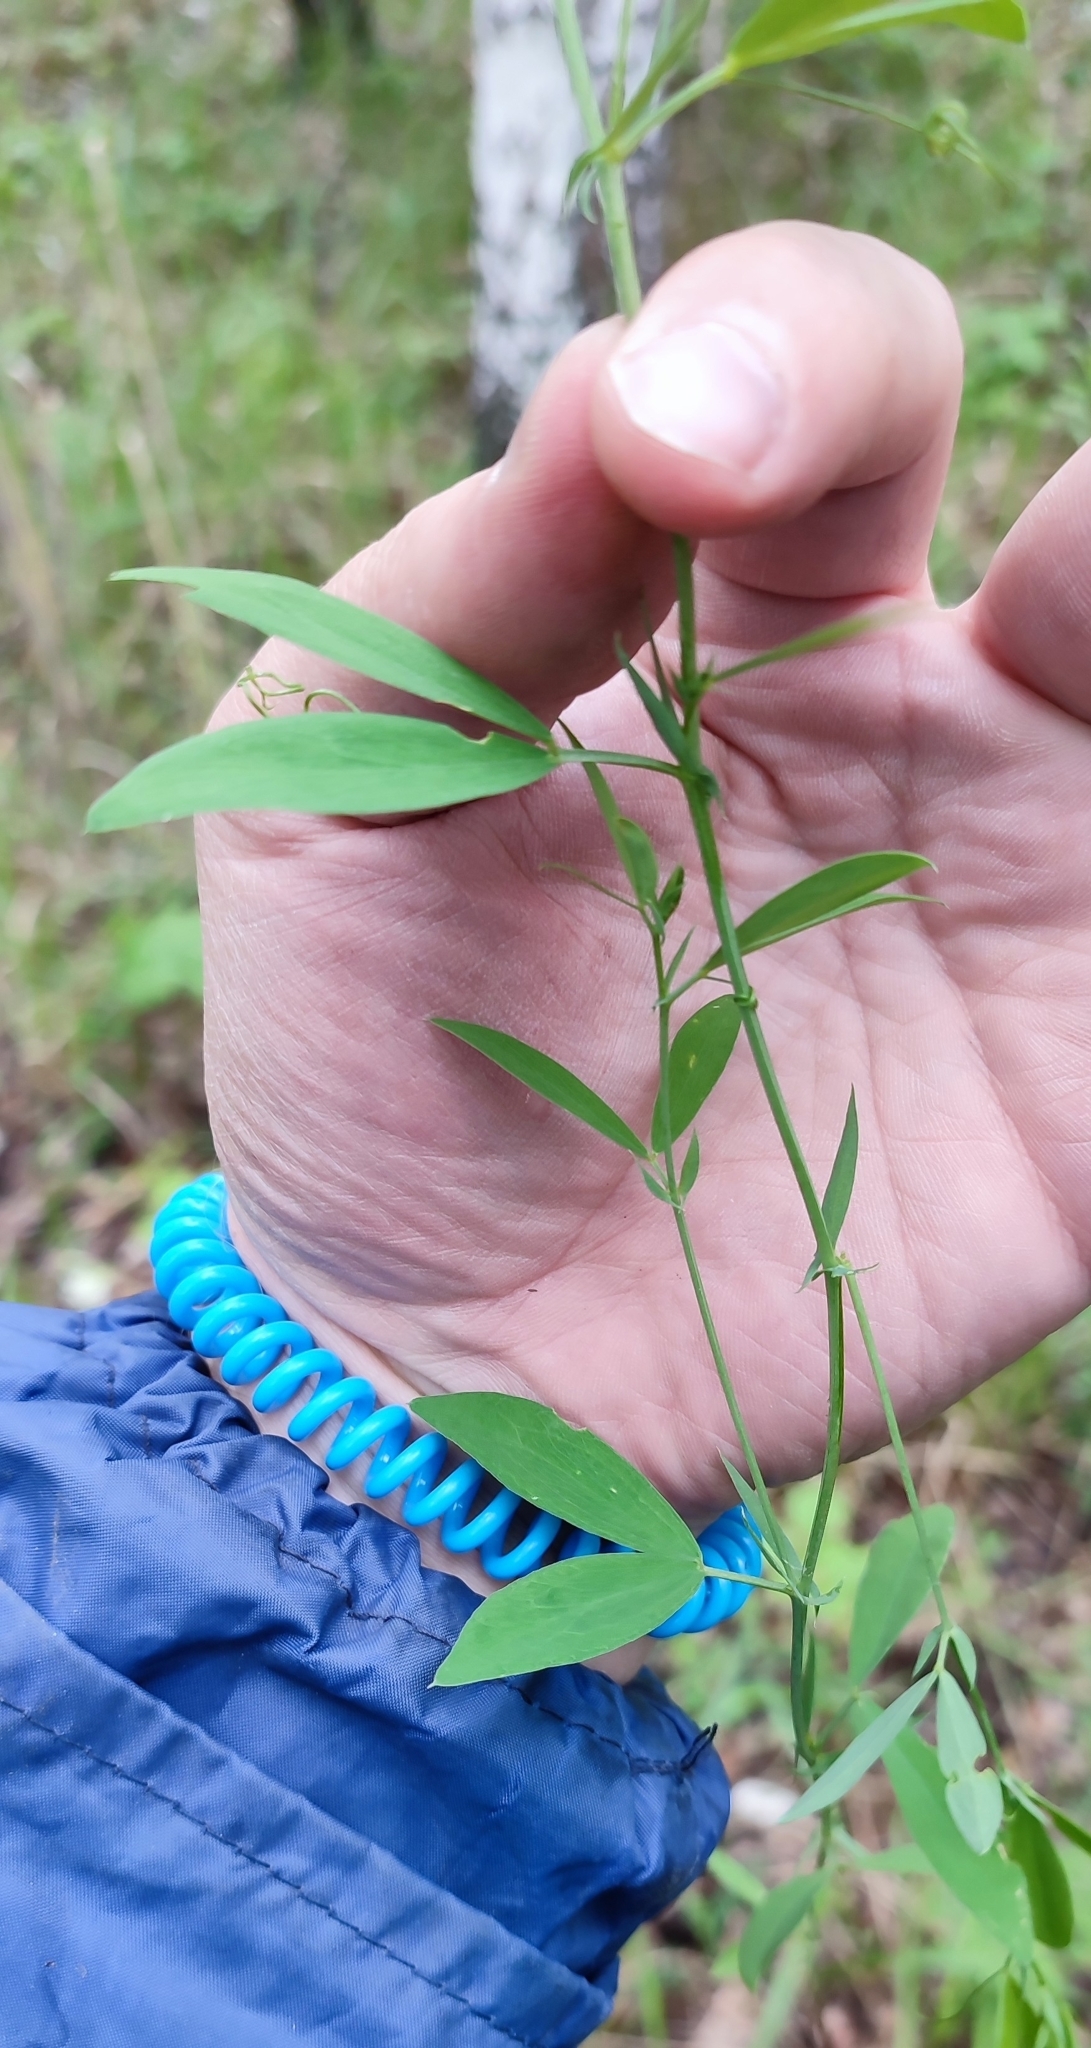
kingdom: Plantae
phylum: Tracheophyta
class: Magnoliopsida
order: Fabales
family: Fabaceae
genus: Lathyrus
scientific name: Lathyrus tuberosus
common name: Tuberous pea
